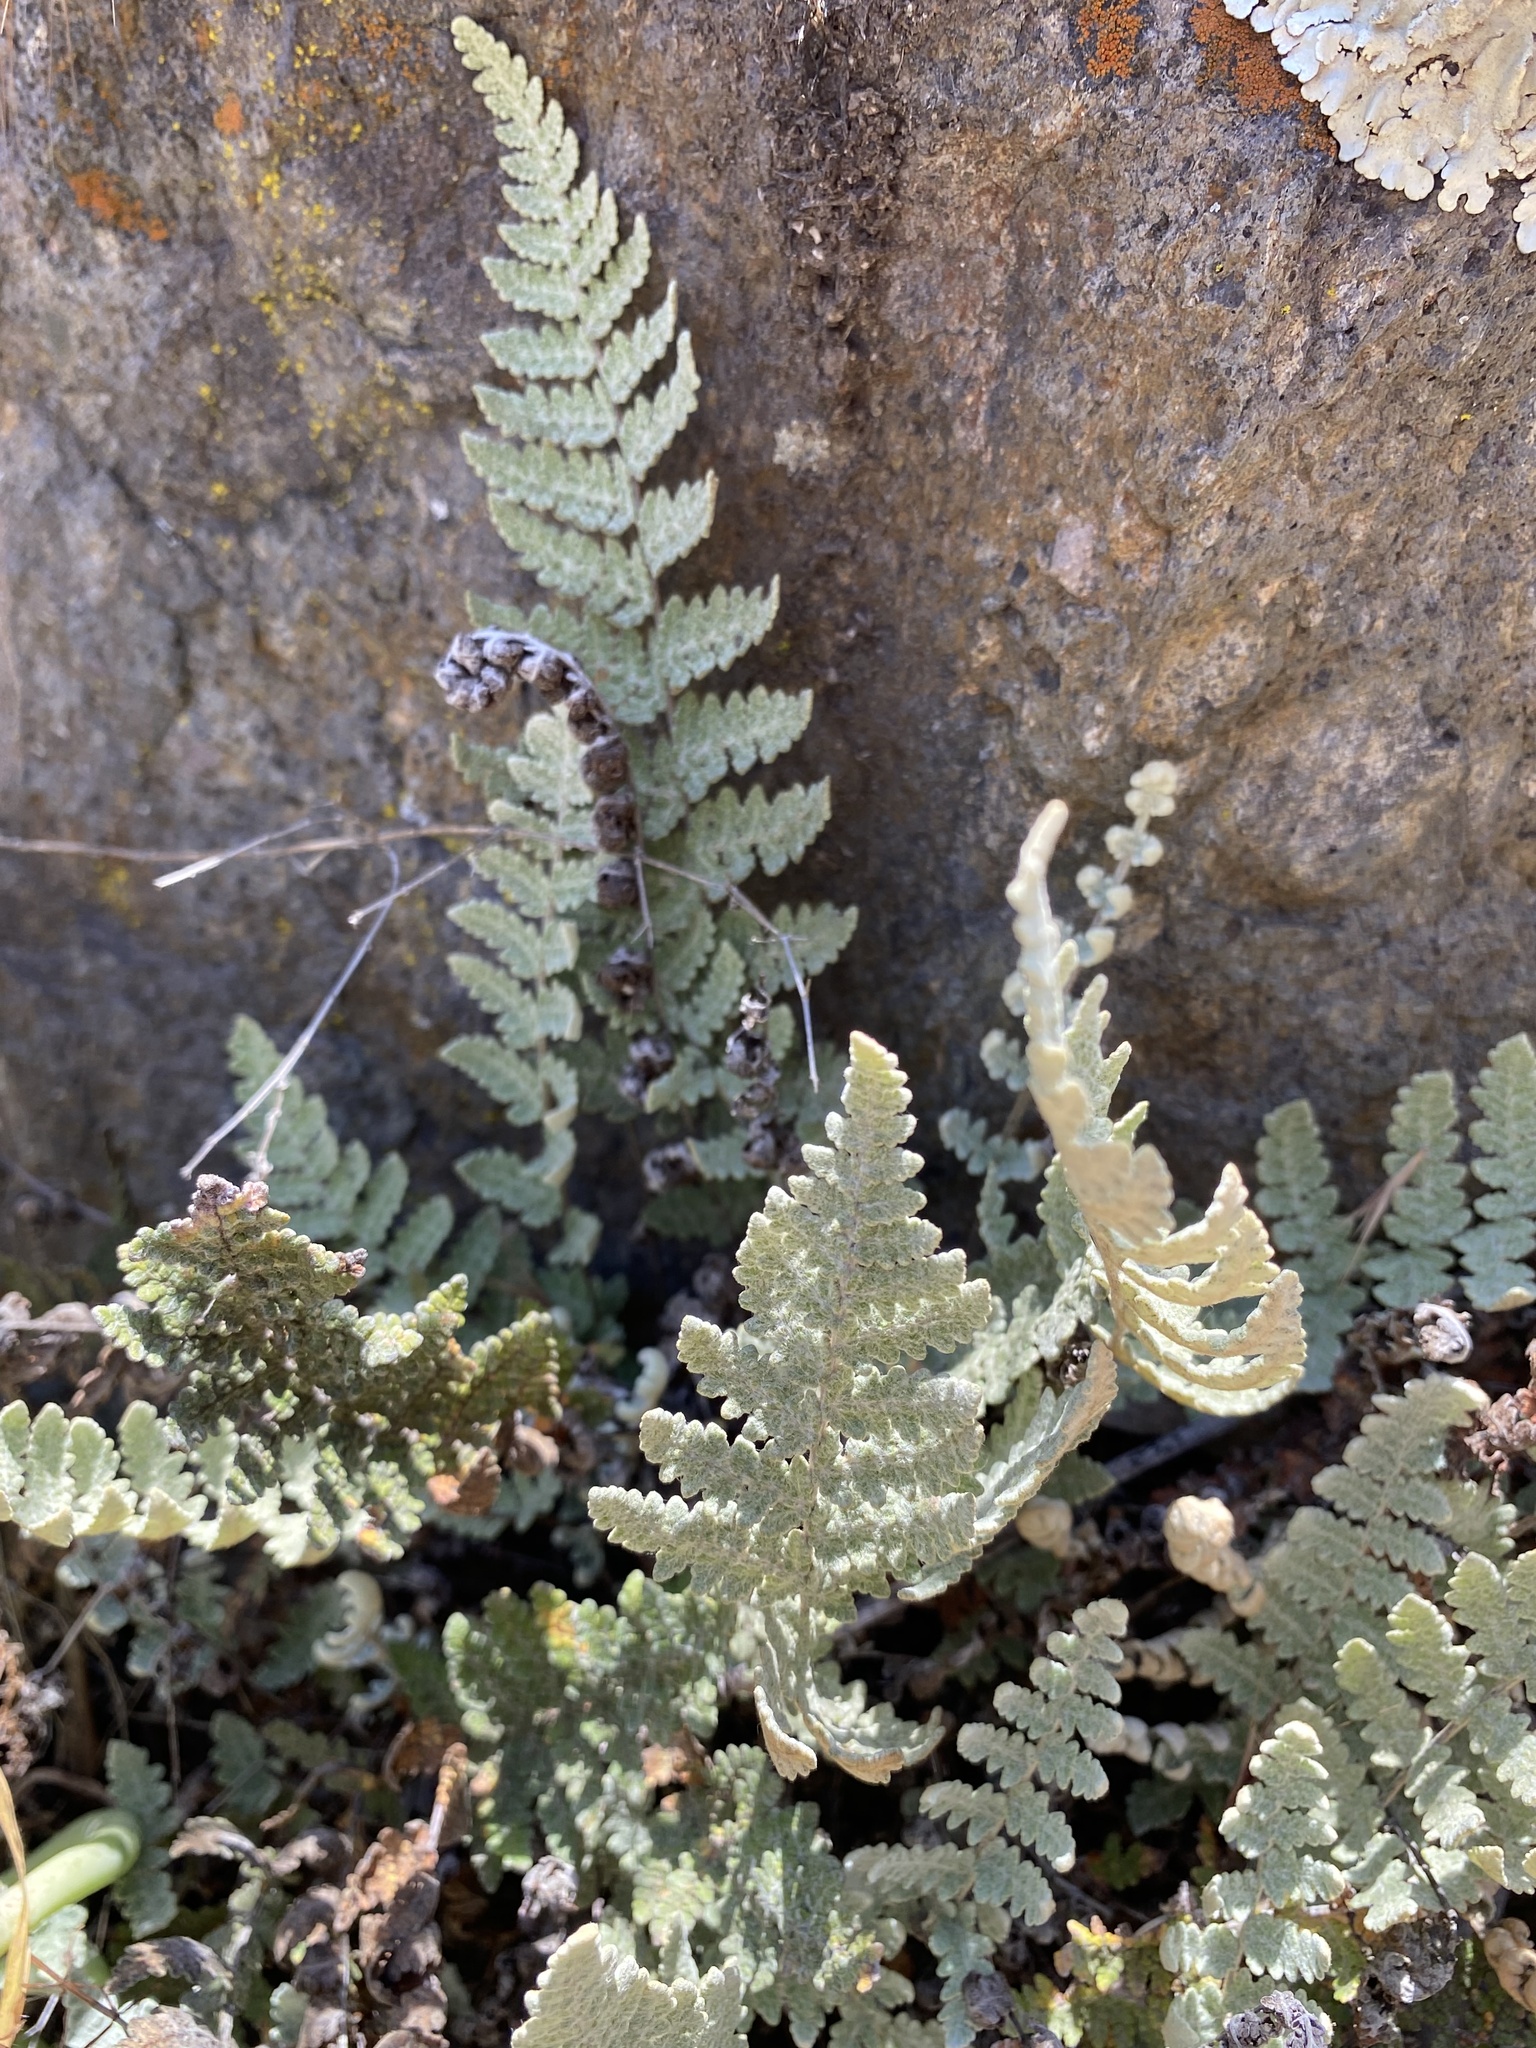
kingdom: Plantae
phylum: Tracheophyta
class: Polypodiopsida
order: Polypodiales
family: Pteridaceae
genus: Myriopteris
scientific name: Myriopteris newberryi
